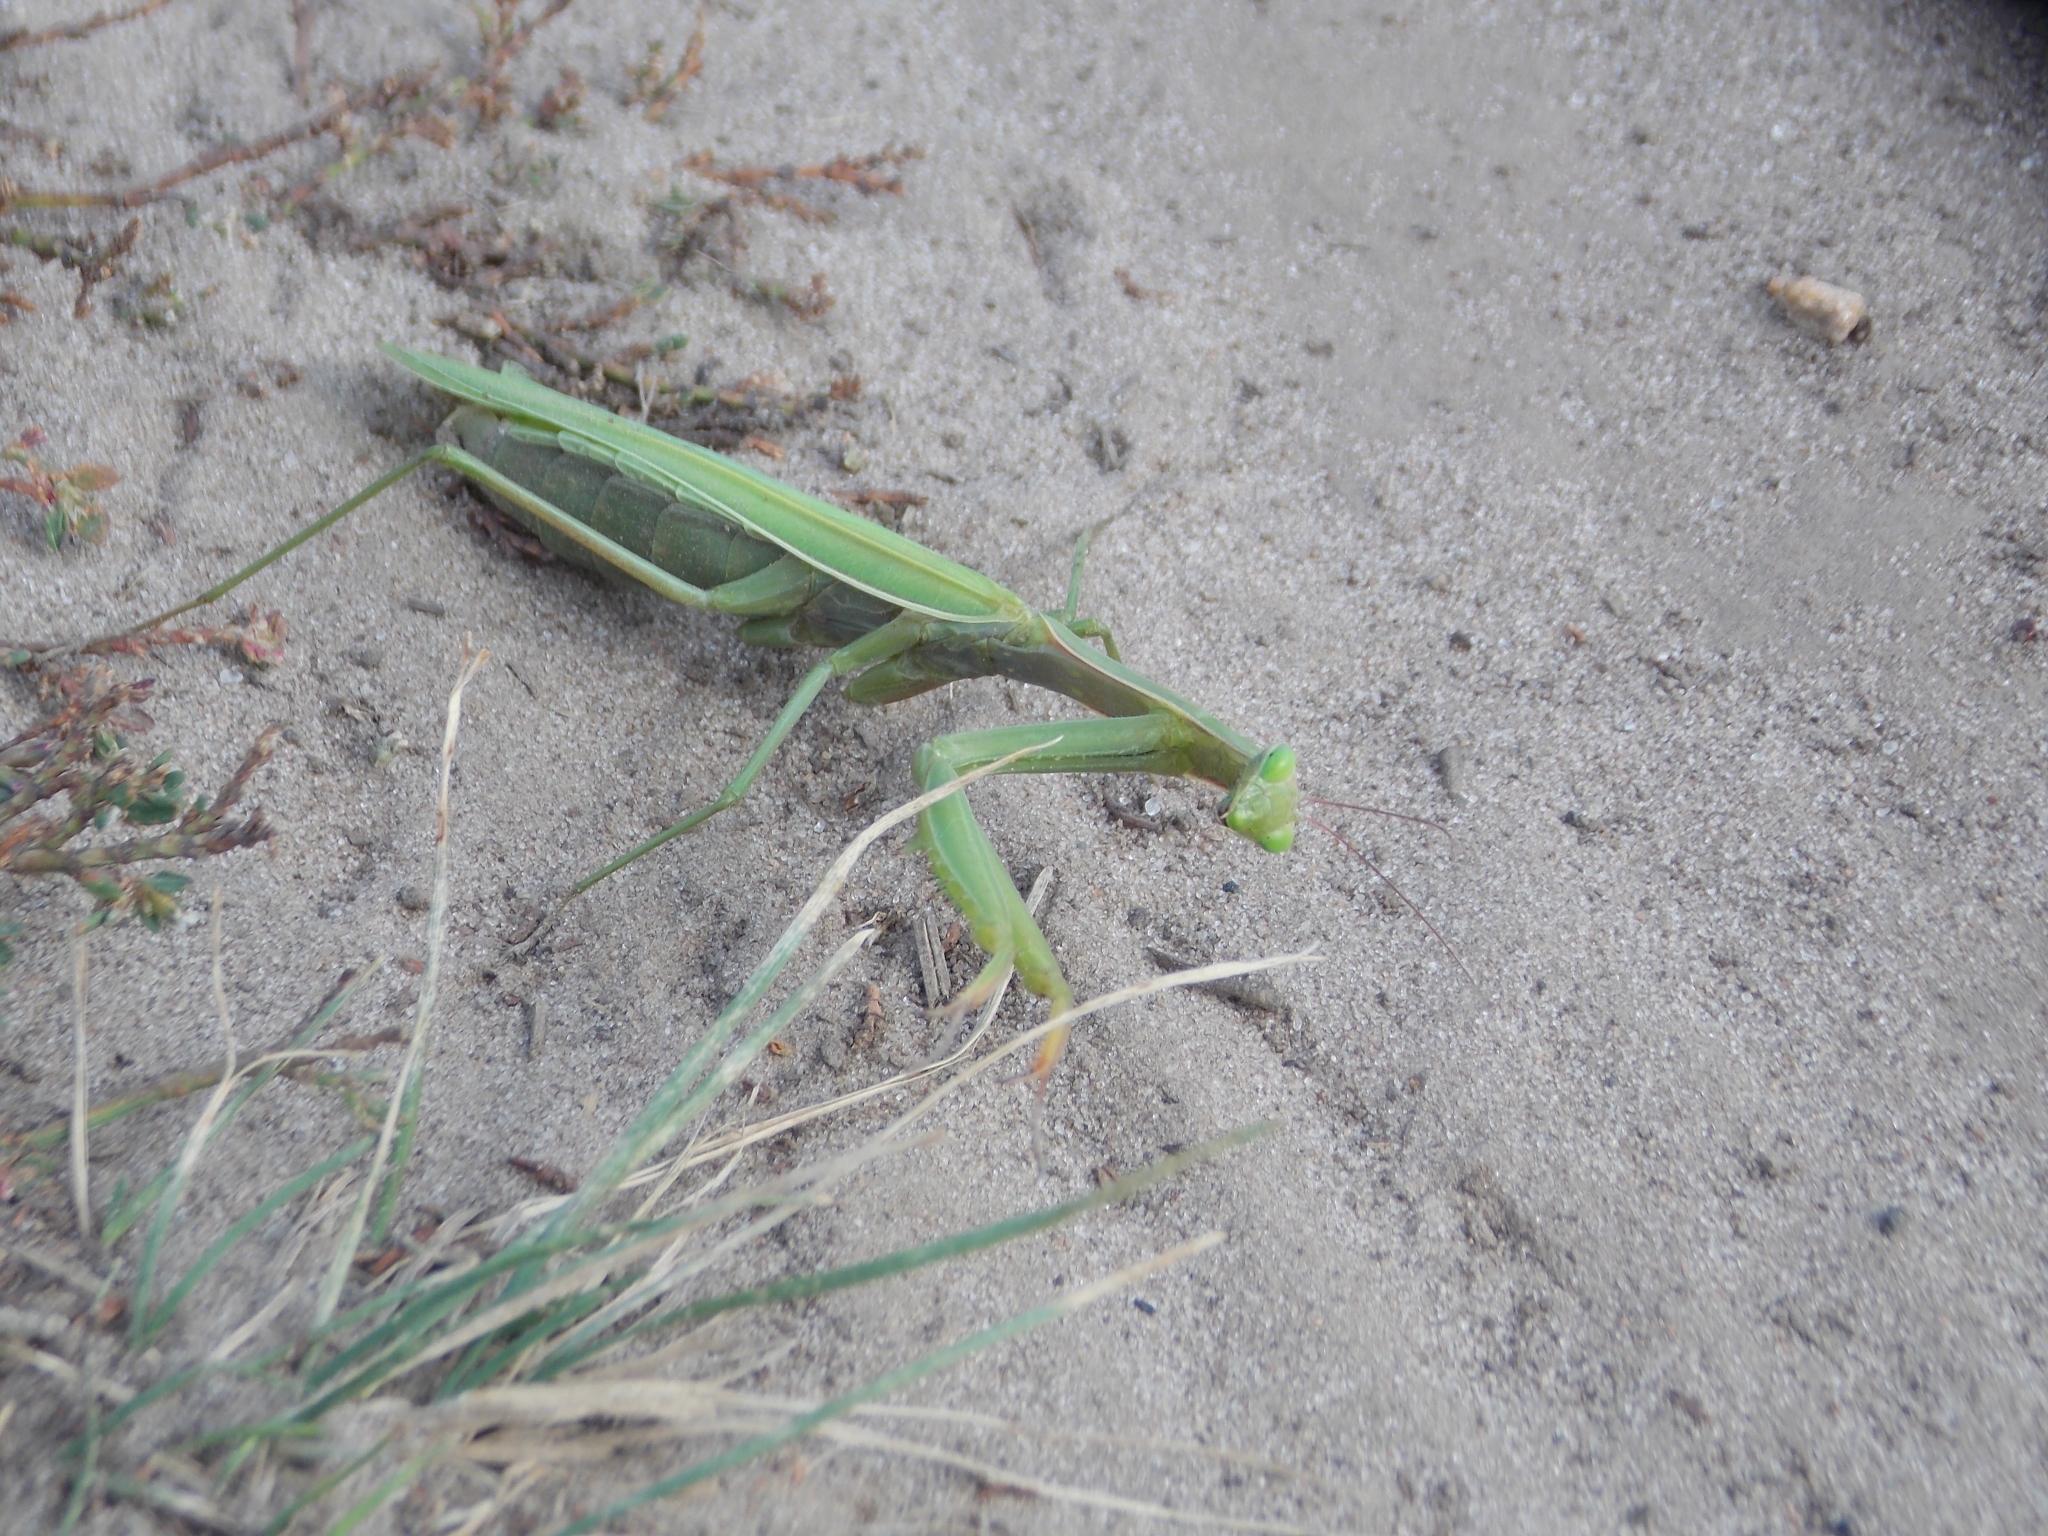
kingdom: Animalia
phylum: Arthropoda
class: Insecta
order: Mantodea
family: Mantidae
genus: Mantis
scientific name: Mantis religiosa
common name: Praying mantis
